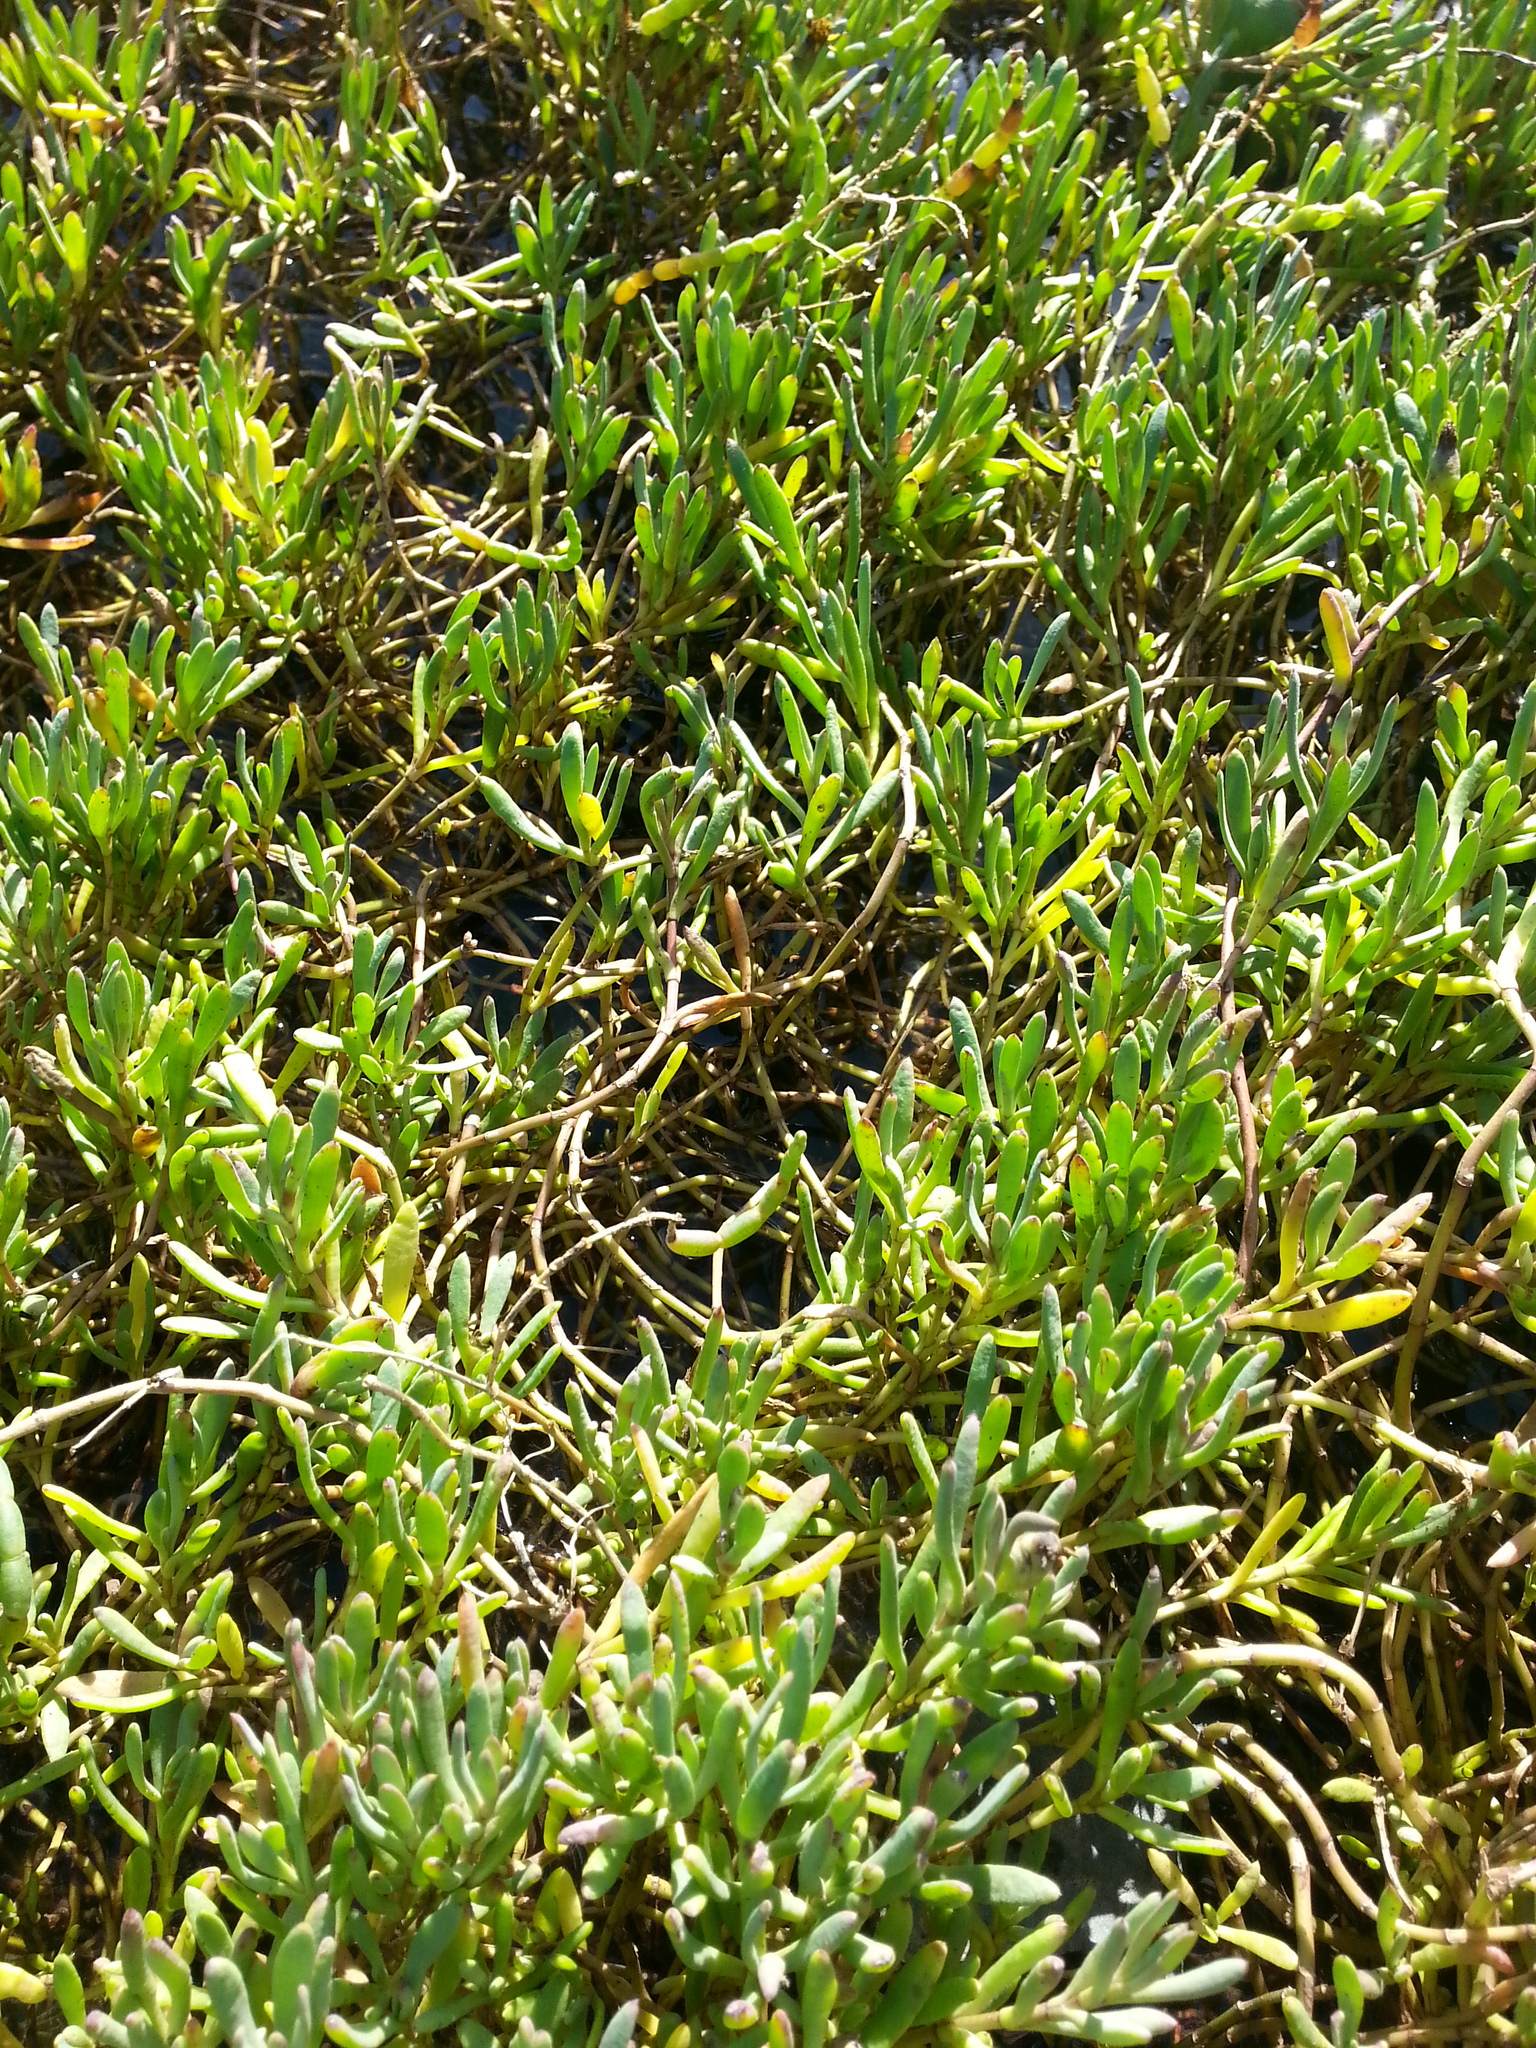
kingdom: Plantae
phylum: Tracheophyta
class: Magnoliopsida
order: Asterales
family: Asteraceae
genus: Jaumea
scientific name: Jaumea carnosa
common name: Fleshy jaumea
